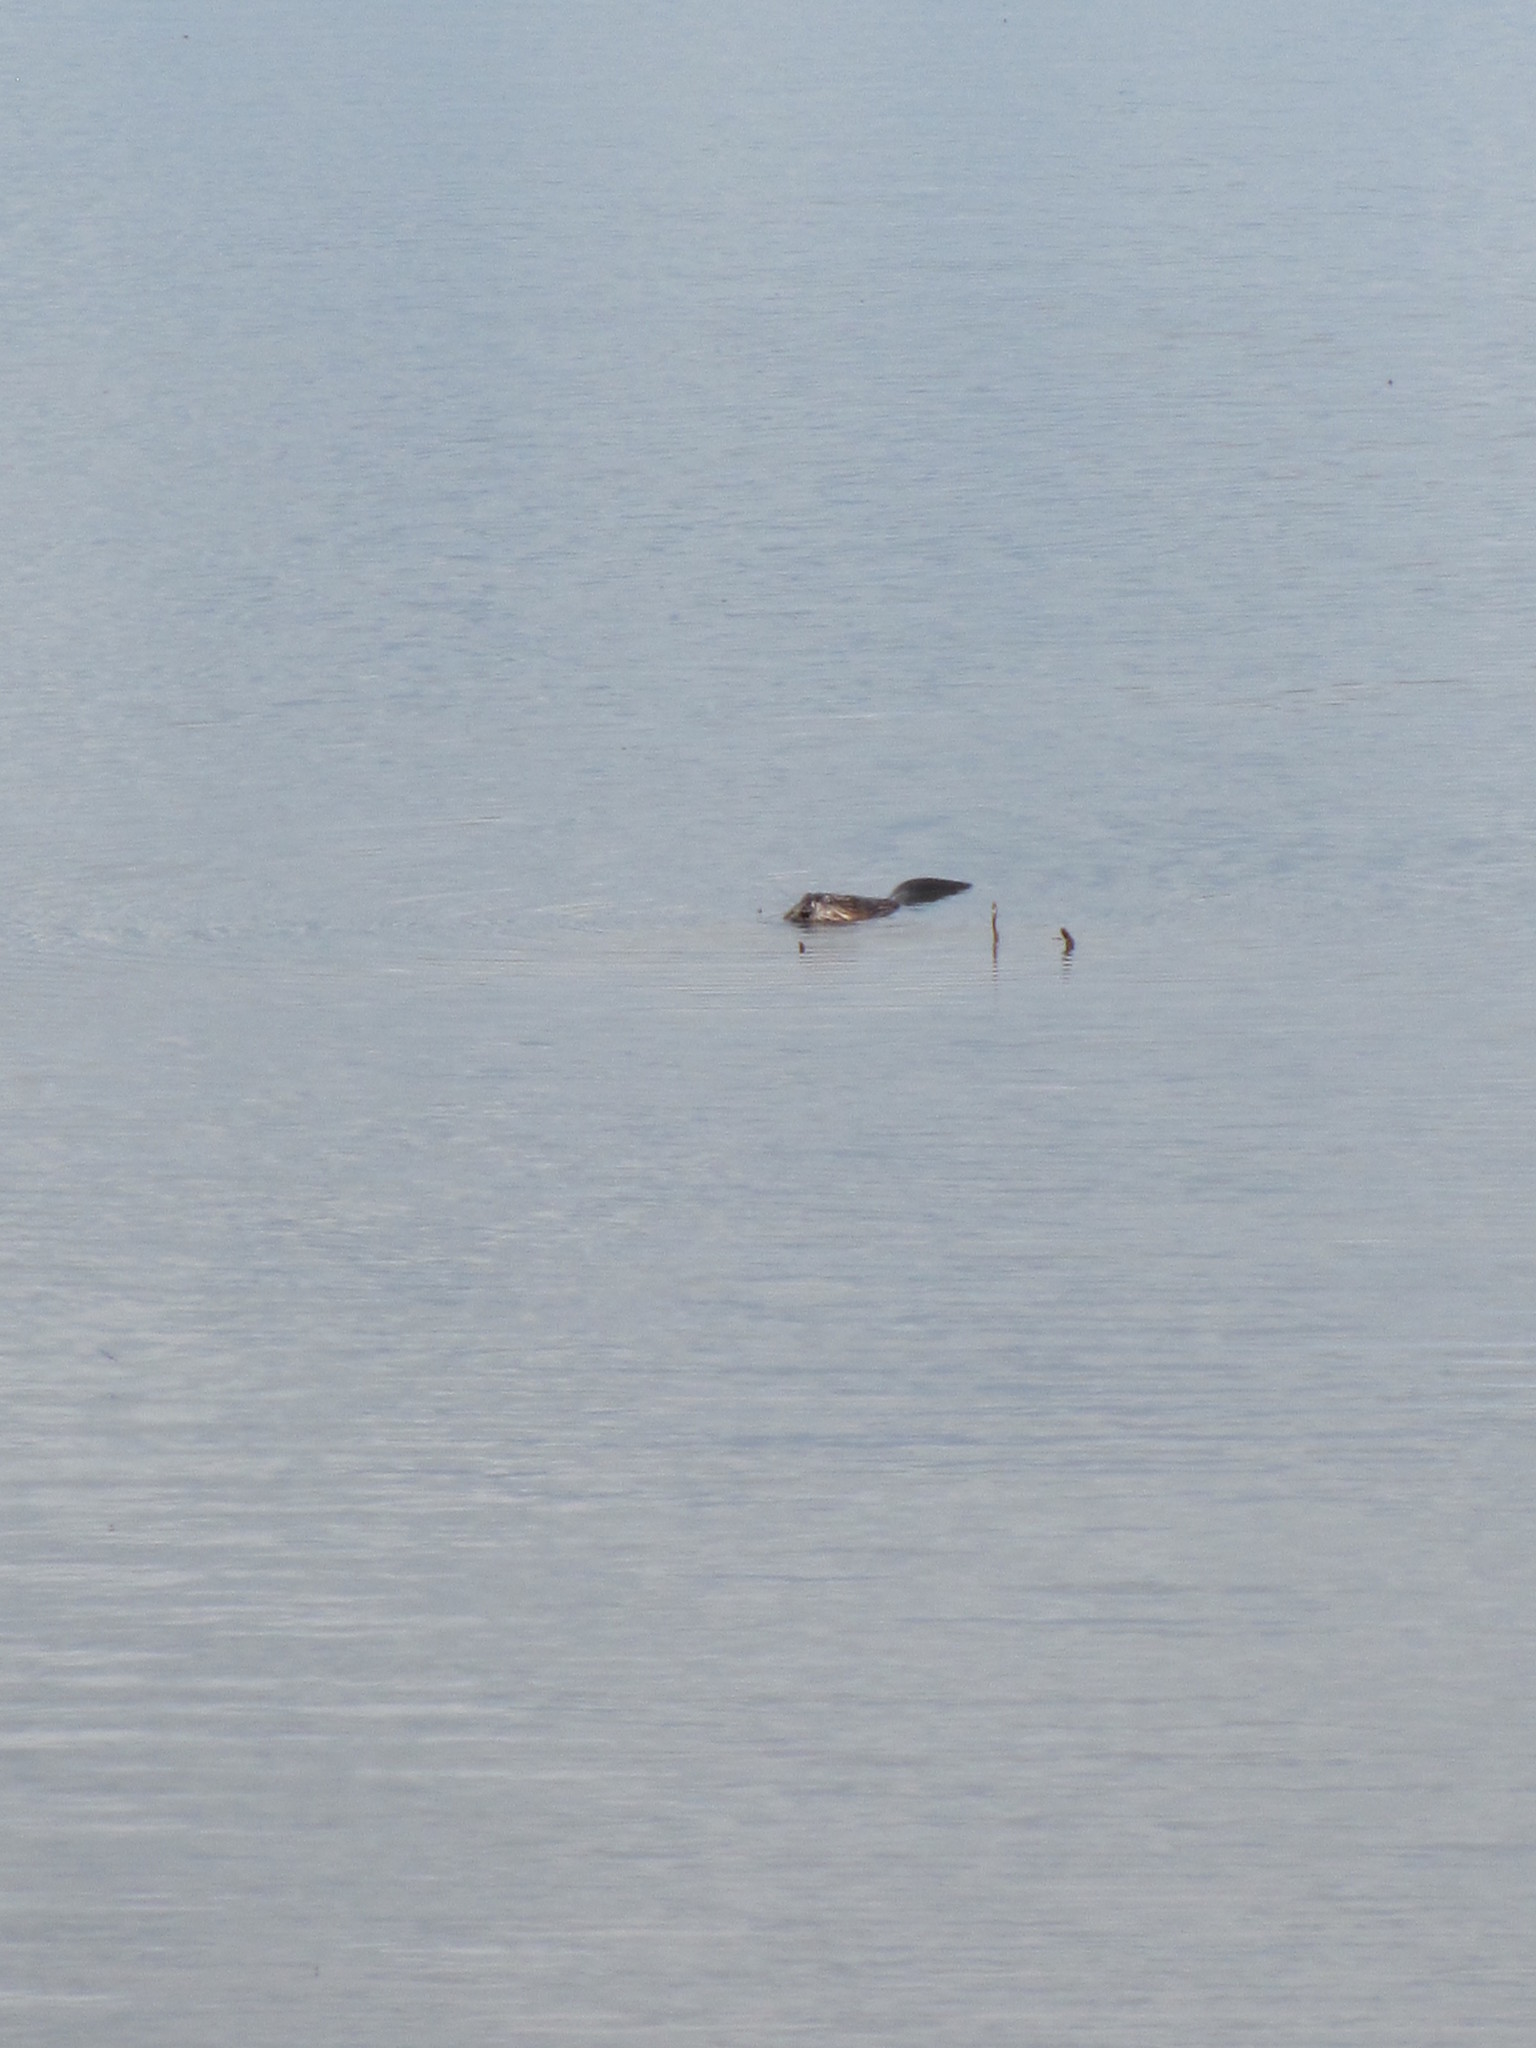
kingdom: Animalia
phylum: Chordata
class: Mammalia
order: Rodentia
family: Cricetidae
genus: Ondatra
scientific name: Ondatra zibethicus
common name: Muskrat
